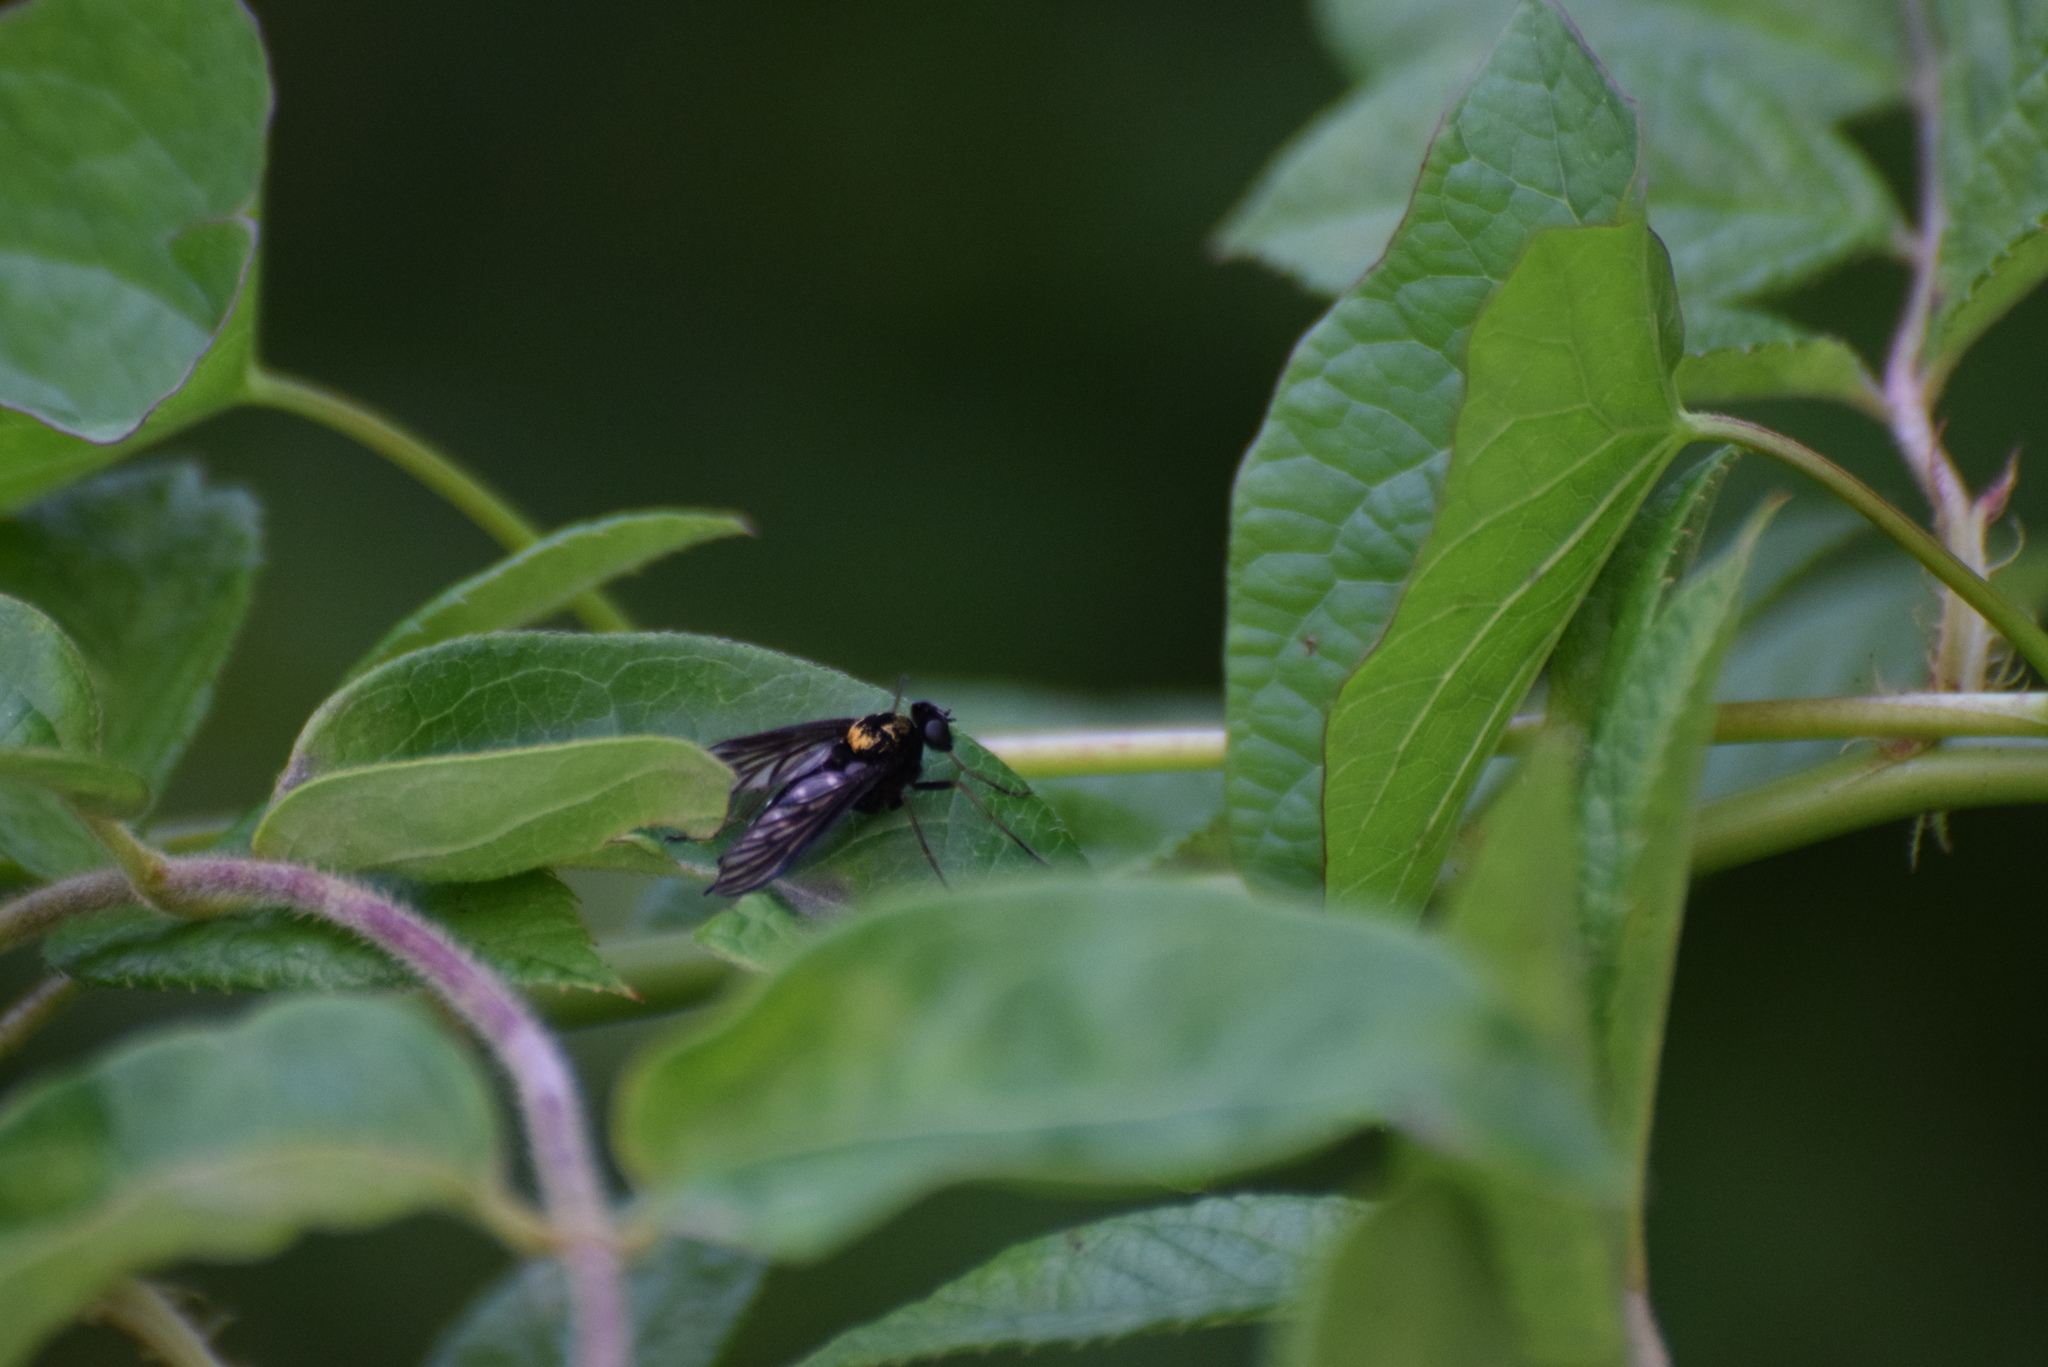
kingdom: Animalia
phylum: Arthropoda
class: Insecta
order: Diptera
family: Rhagionidae
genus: Chrysopilus
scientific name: Chrysopilus thoracicus
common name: Golden-backed snipe fly
